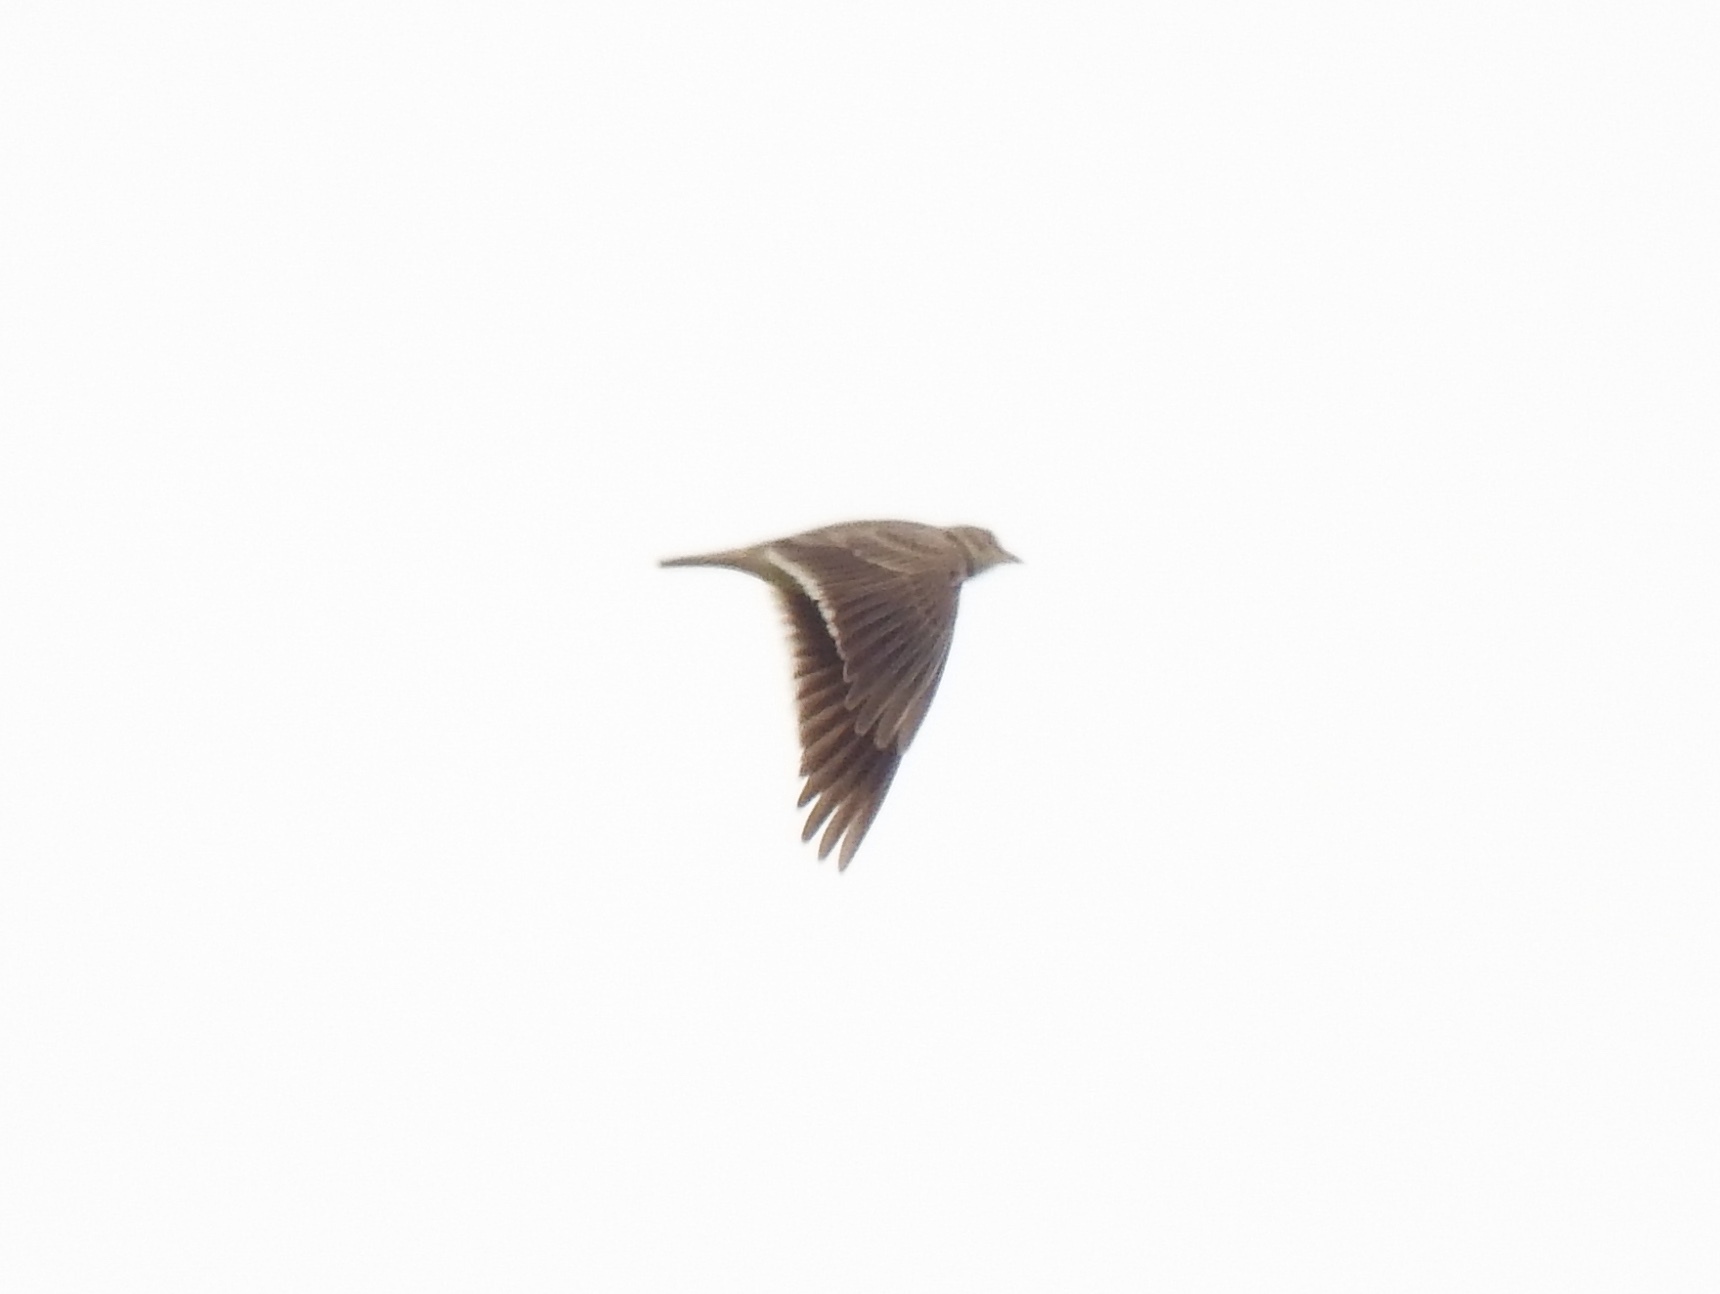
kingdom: Animalia
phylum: Chordata
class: Aves
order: Passeriformes
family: Alaudidae
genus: Melanocorypha
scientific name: Melanocorypha calandra
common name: Calandra lark
